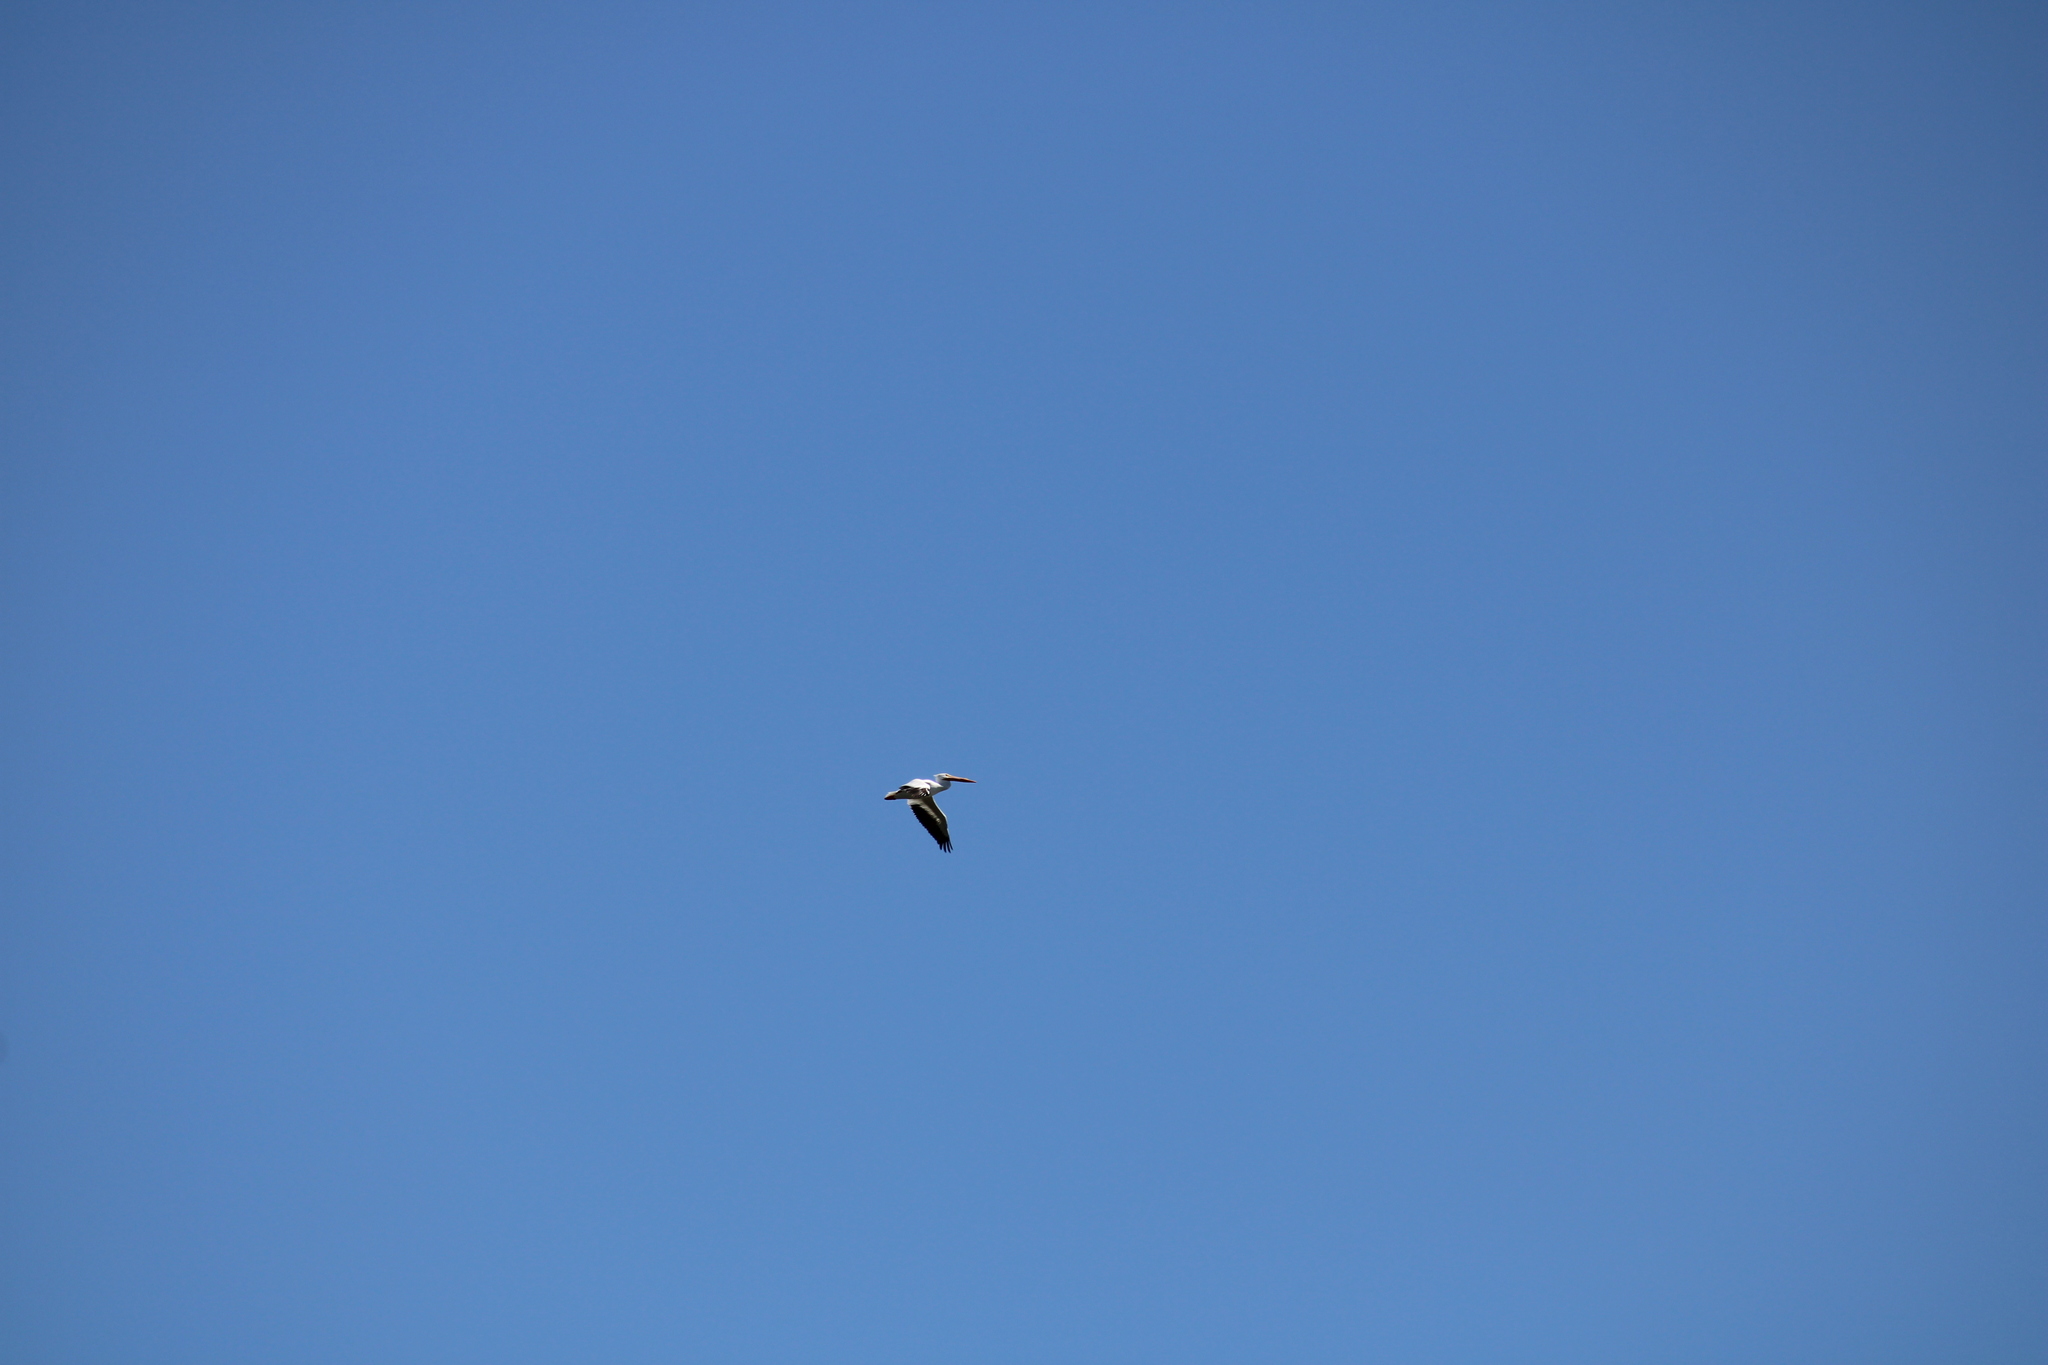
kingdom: Animalia
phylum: Chordata
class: Aves
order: Pelecaniformes
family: Pelecanidae
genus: Pelecanus
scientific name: Pelecanus erythrorhynchos
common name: American white pelican
